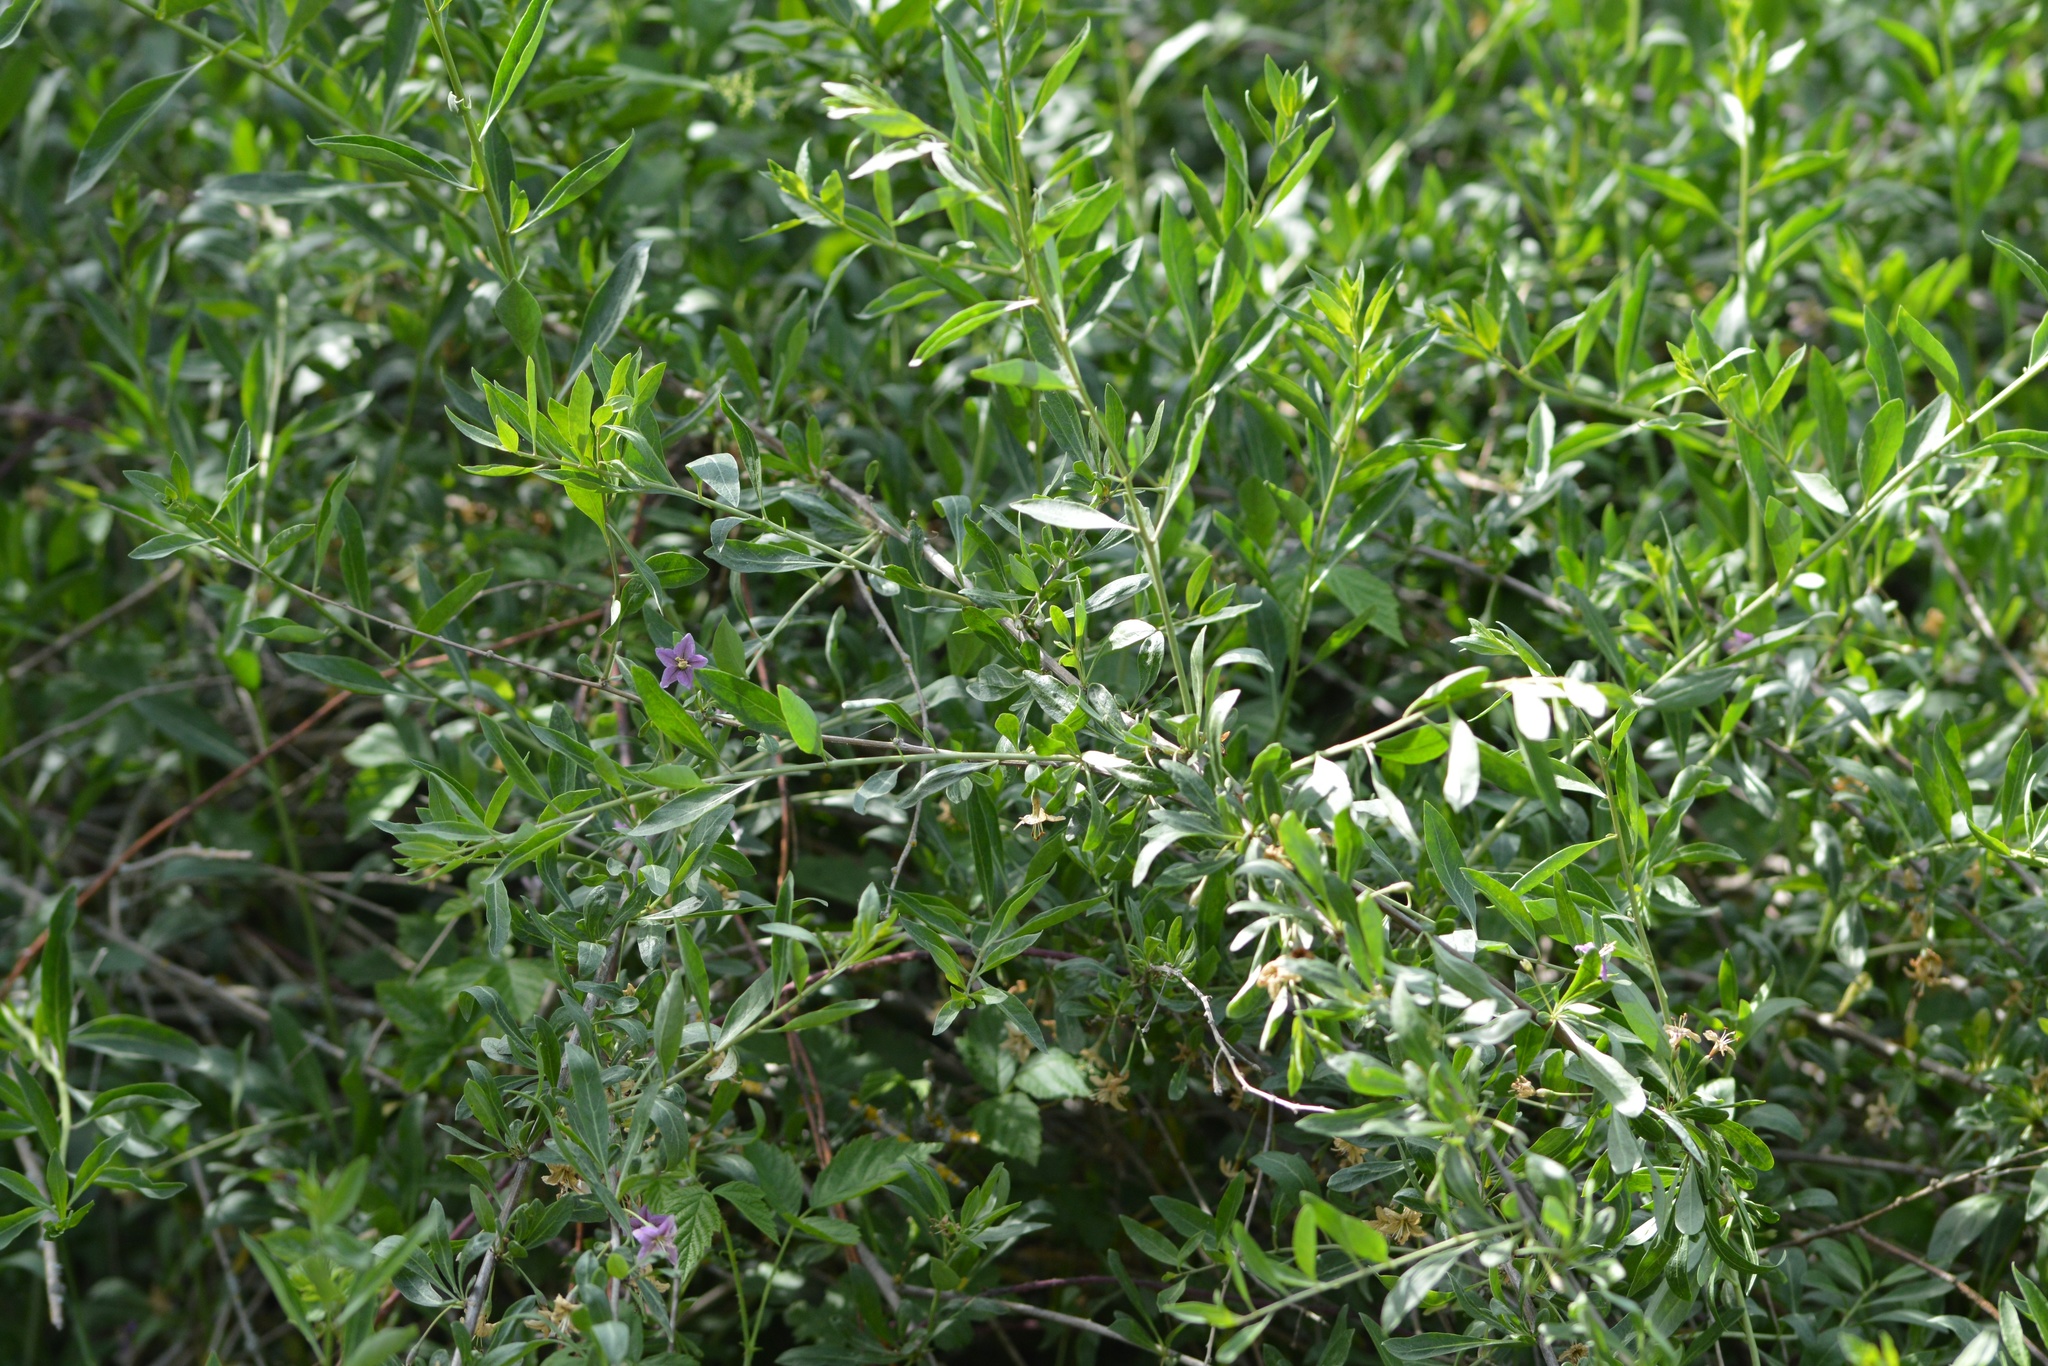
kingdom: Plantae
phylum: Tracheophyta
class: Magnoliopsida
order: Solanales
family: Solanaceae
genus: Lycium
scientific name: Lycium barbarum
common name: Duke of argyll's teaplant
